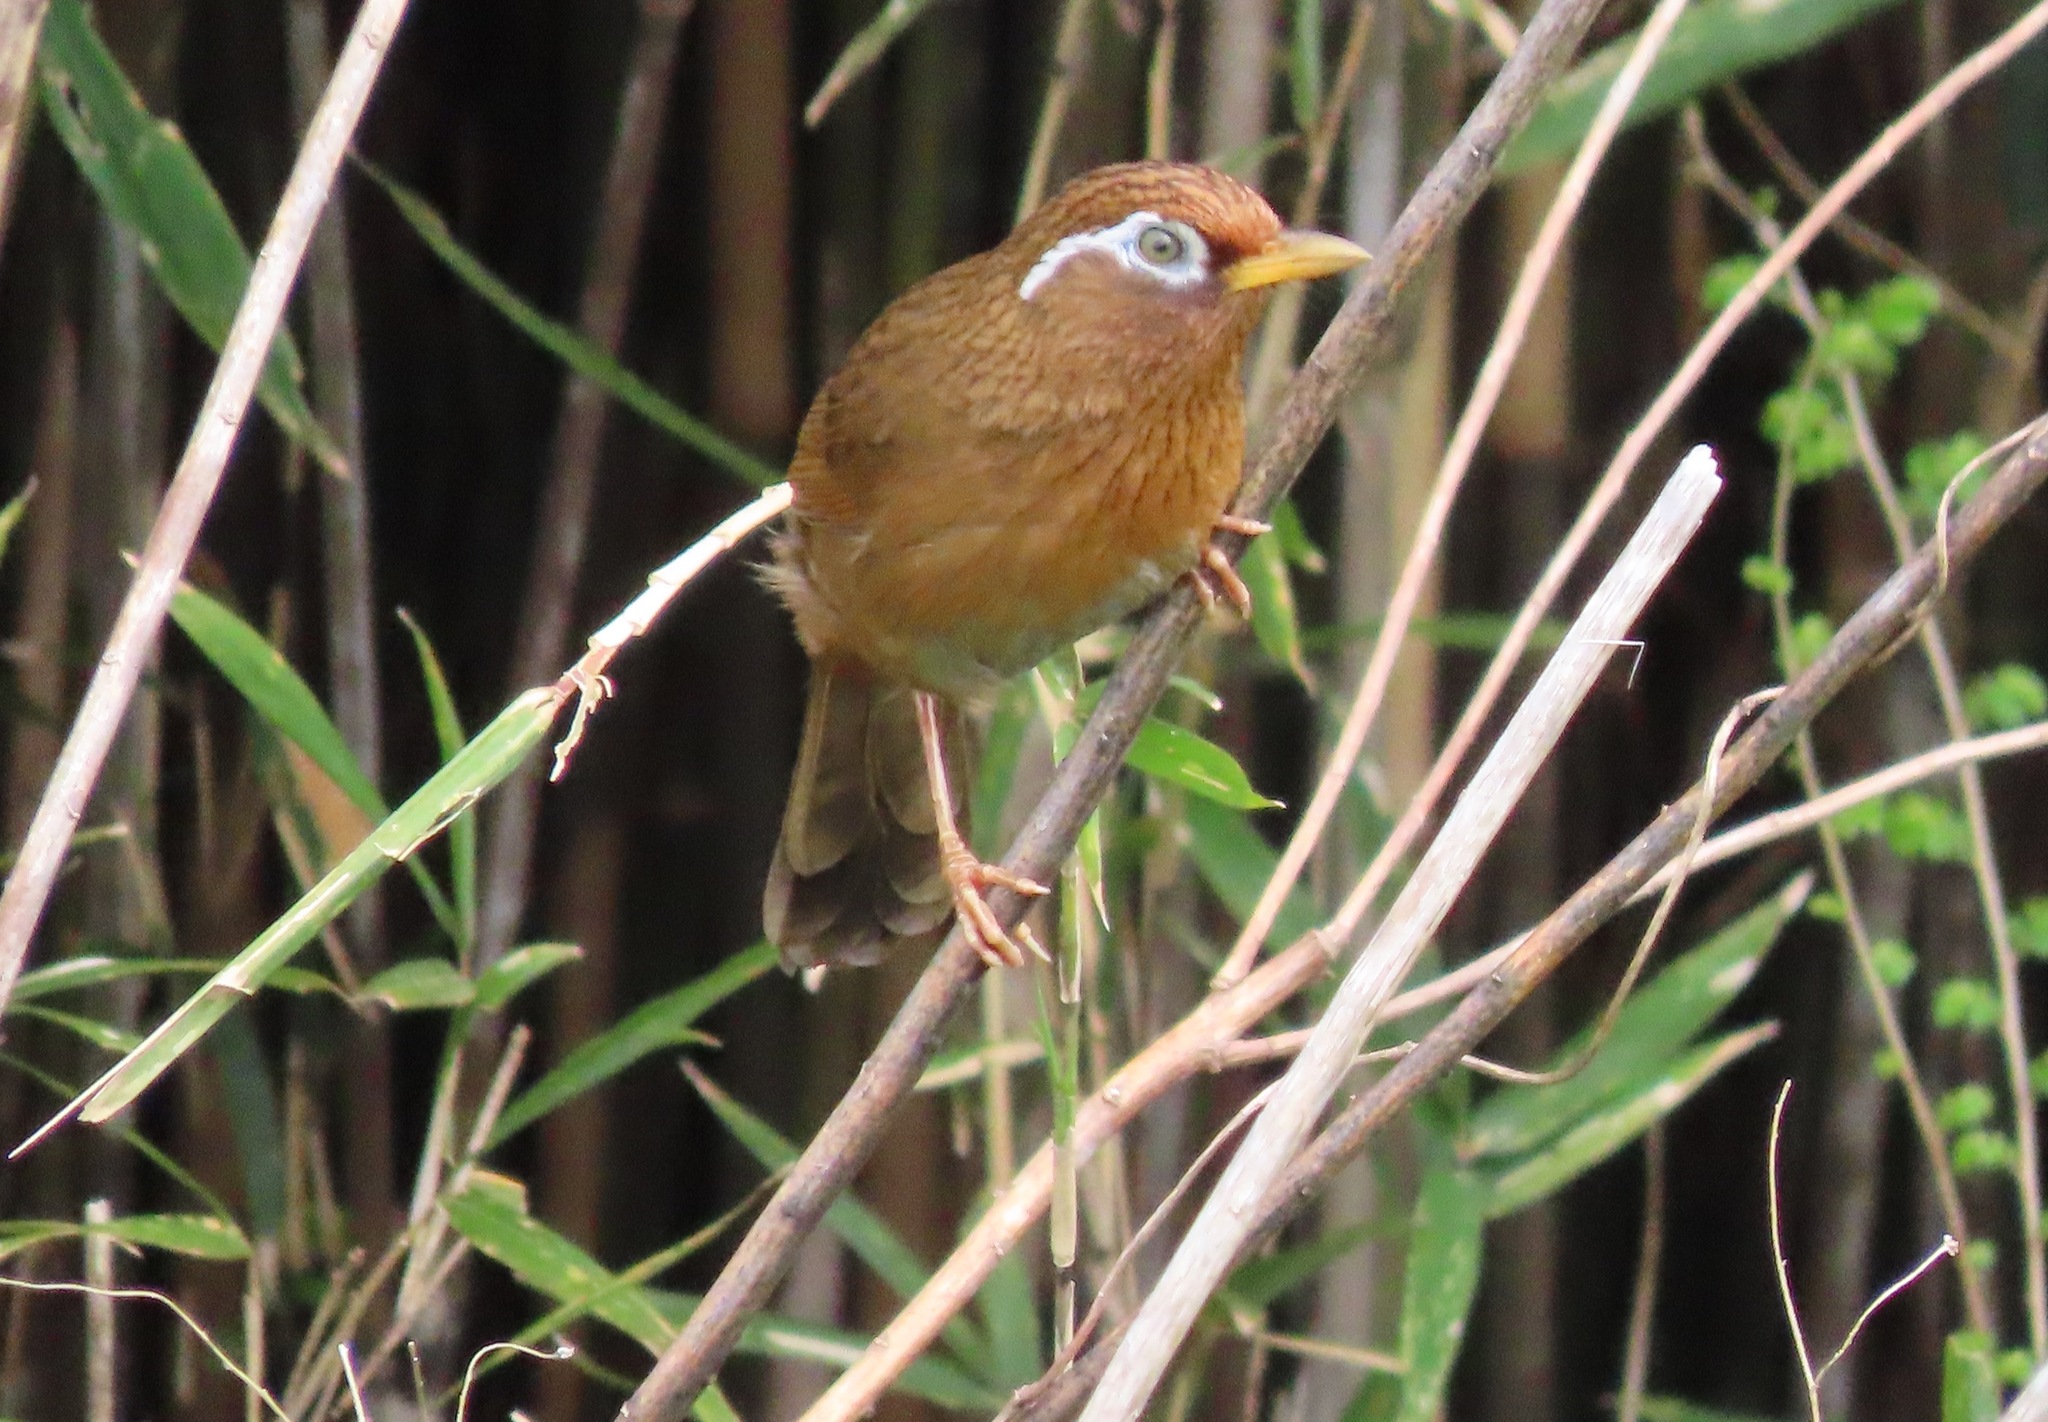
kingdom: Animalia
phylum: Chordata
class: Aves
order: Passeriformes
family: Leiothrichidae
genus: Garrulax
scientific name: Garrulax canorus
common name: Chinese hwamei
